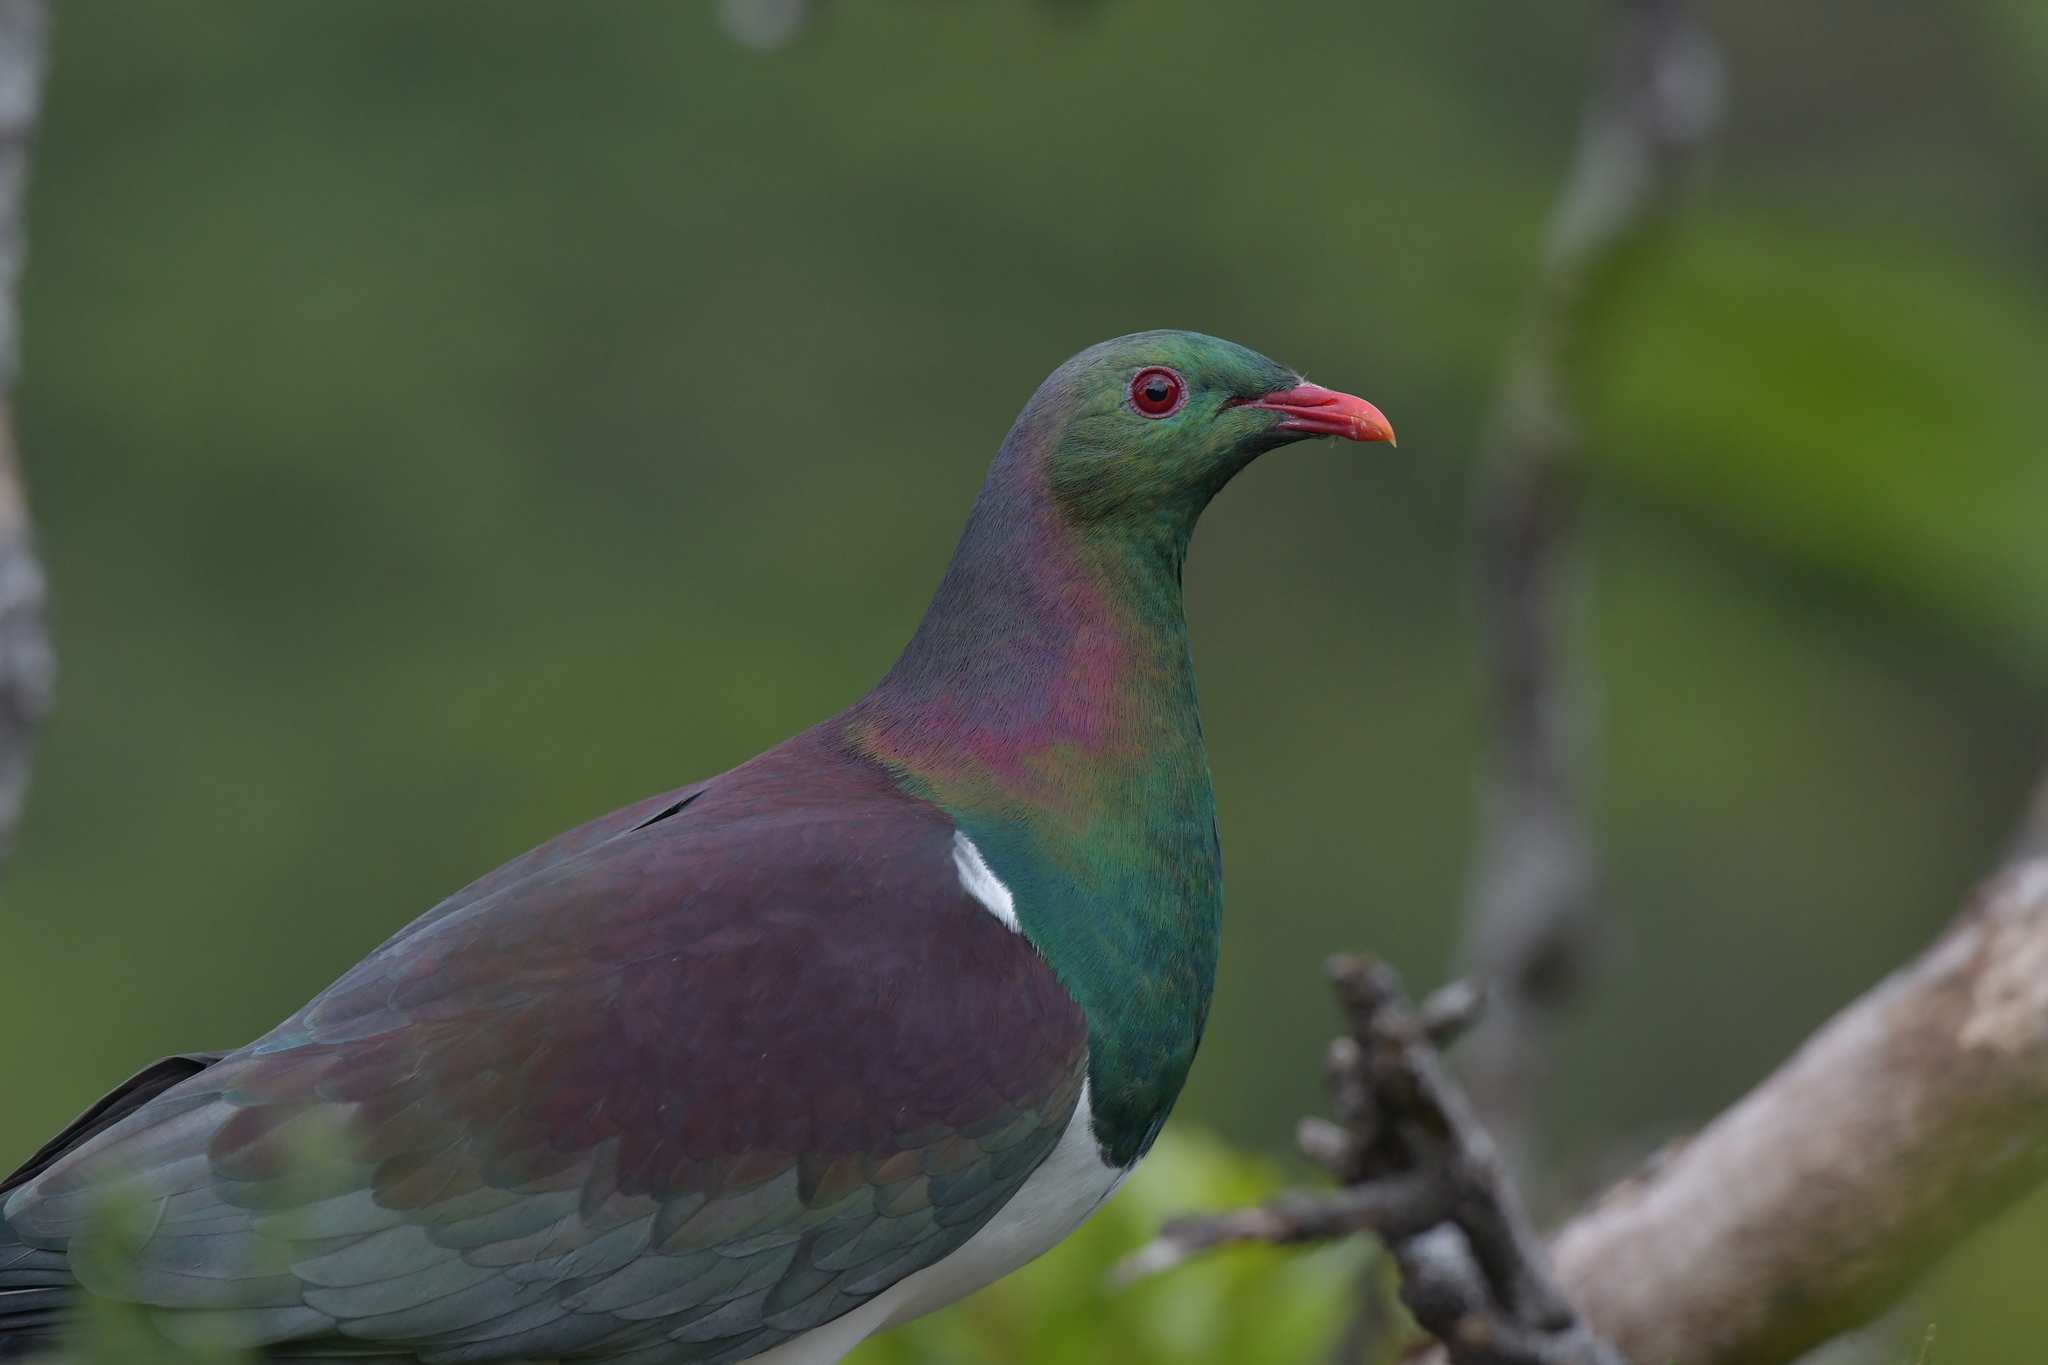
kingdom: Animalia
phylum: Chordata
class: Aves
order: Columbiformes
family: Columbidae
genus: Hemiphaga
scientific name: Hemiphaga novaeseelandiae
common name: New zealand pigeon
